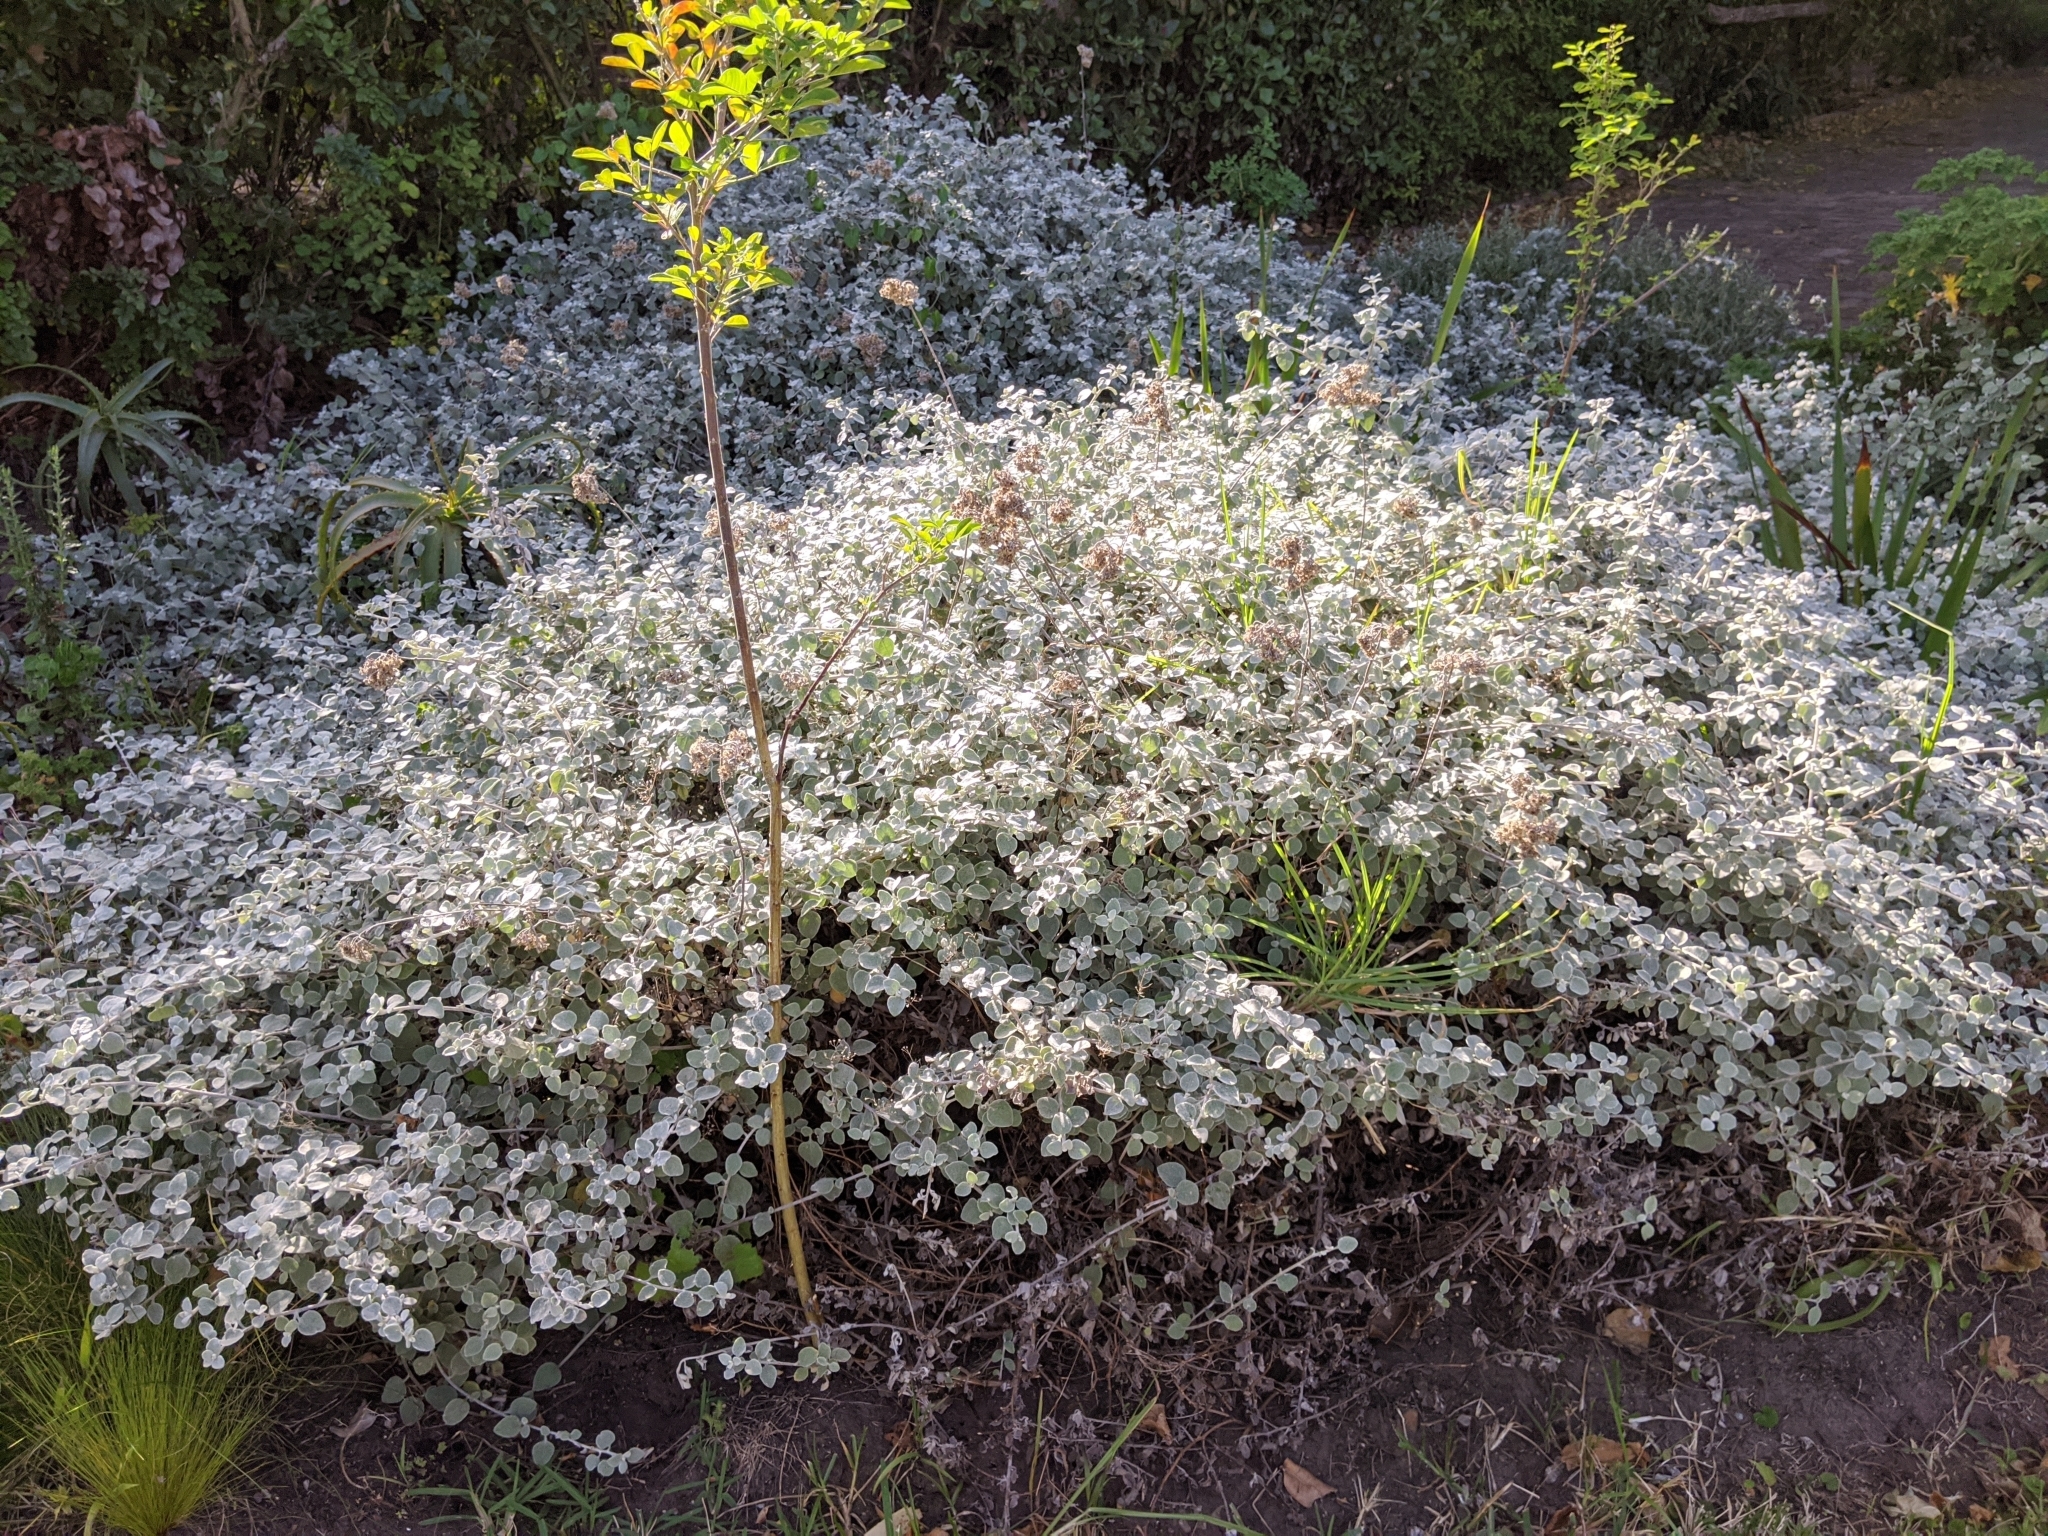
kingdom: Plantae
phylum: Tracheophyta
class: Magnoliopsida
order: Asterales
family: Asteraceae
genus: Helichrysum
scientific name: Helichrysum petiolare
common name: Licorice-plant
